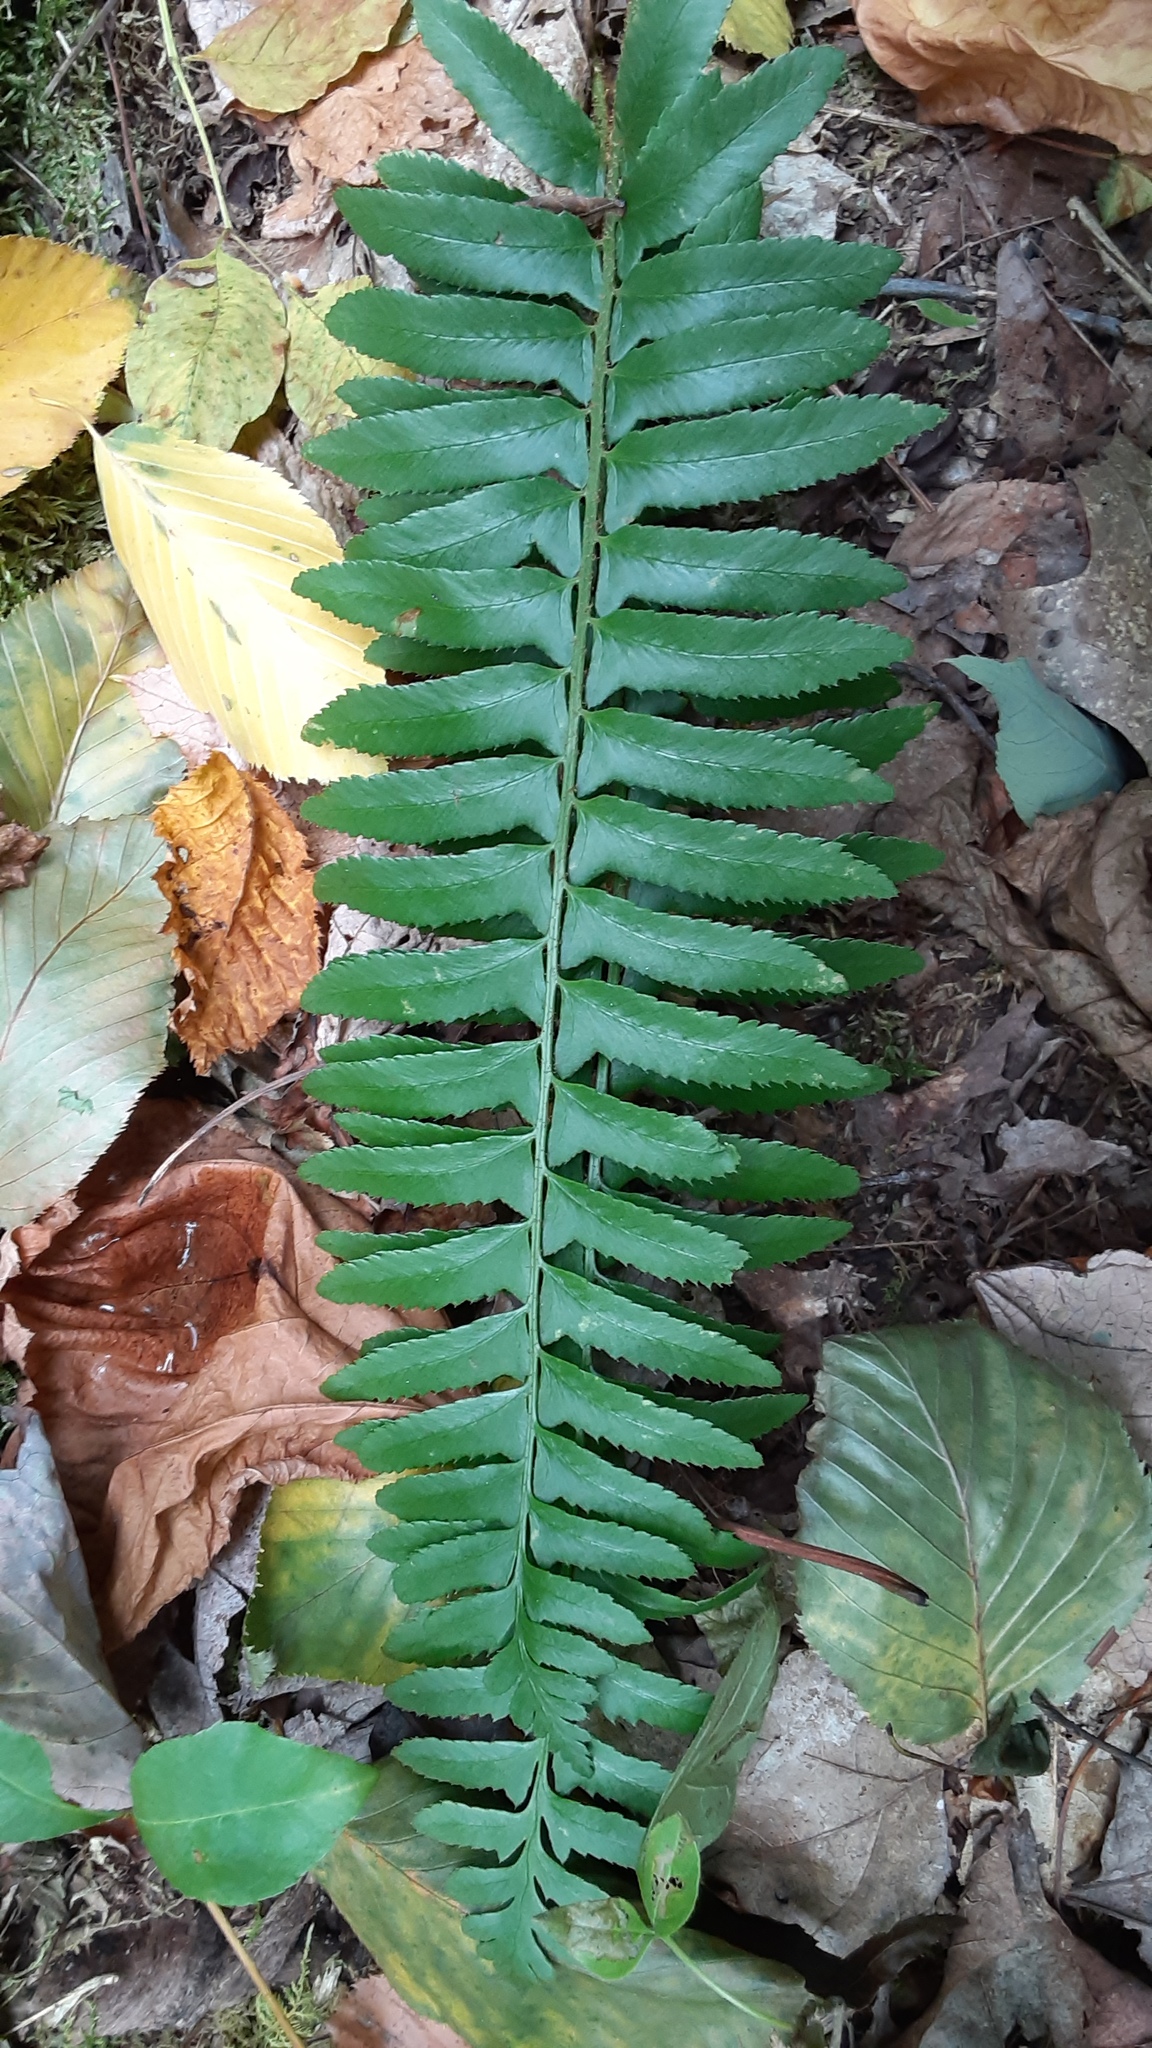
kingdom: Plantae
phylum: Tracheophyta
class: Polypodiopsida
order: Polypodiales
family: Dryopteridaceae
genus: Polystichum
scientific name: Polystichum acrostichoides
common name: Christmas fern
